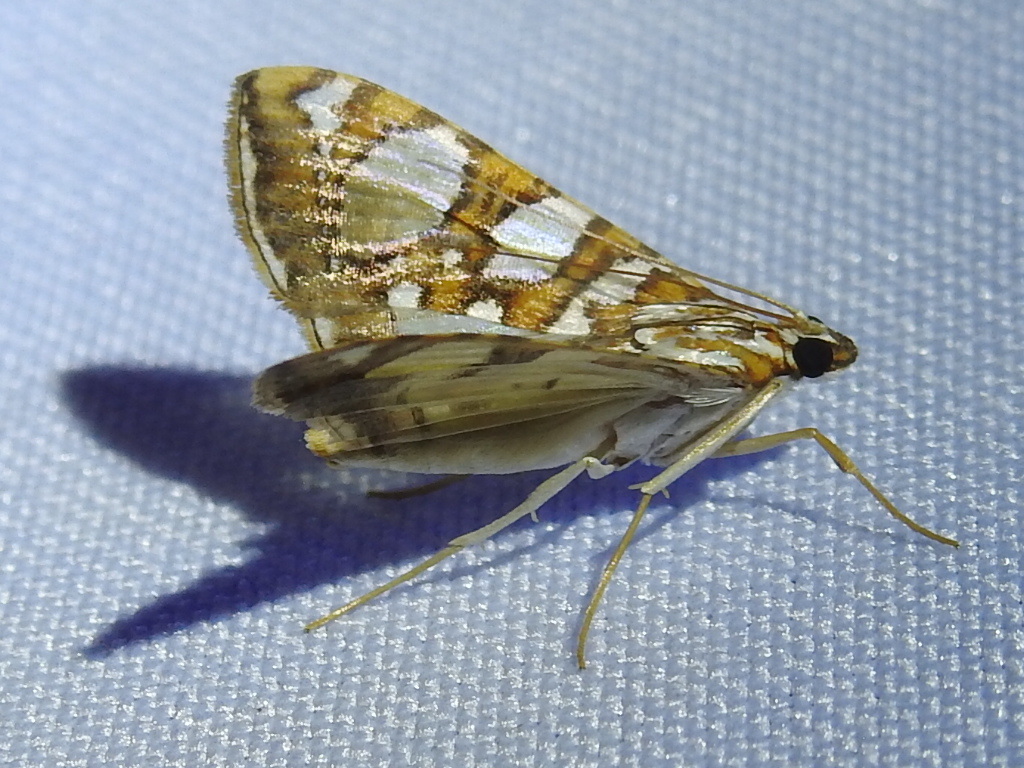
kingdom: Animalia
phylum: Arthropoda
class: Insecta
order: Lepidoptera
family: Crambidae
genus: Glyphodes
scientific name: Glyphodes sibillalis
